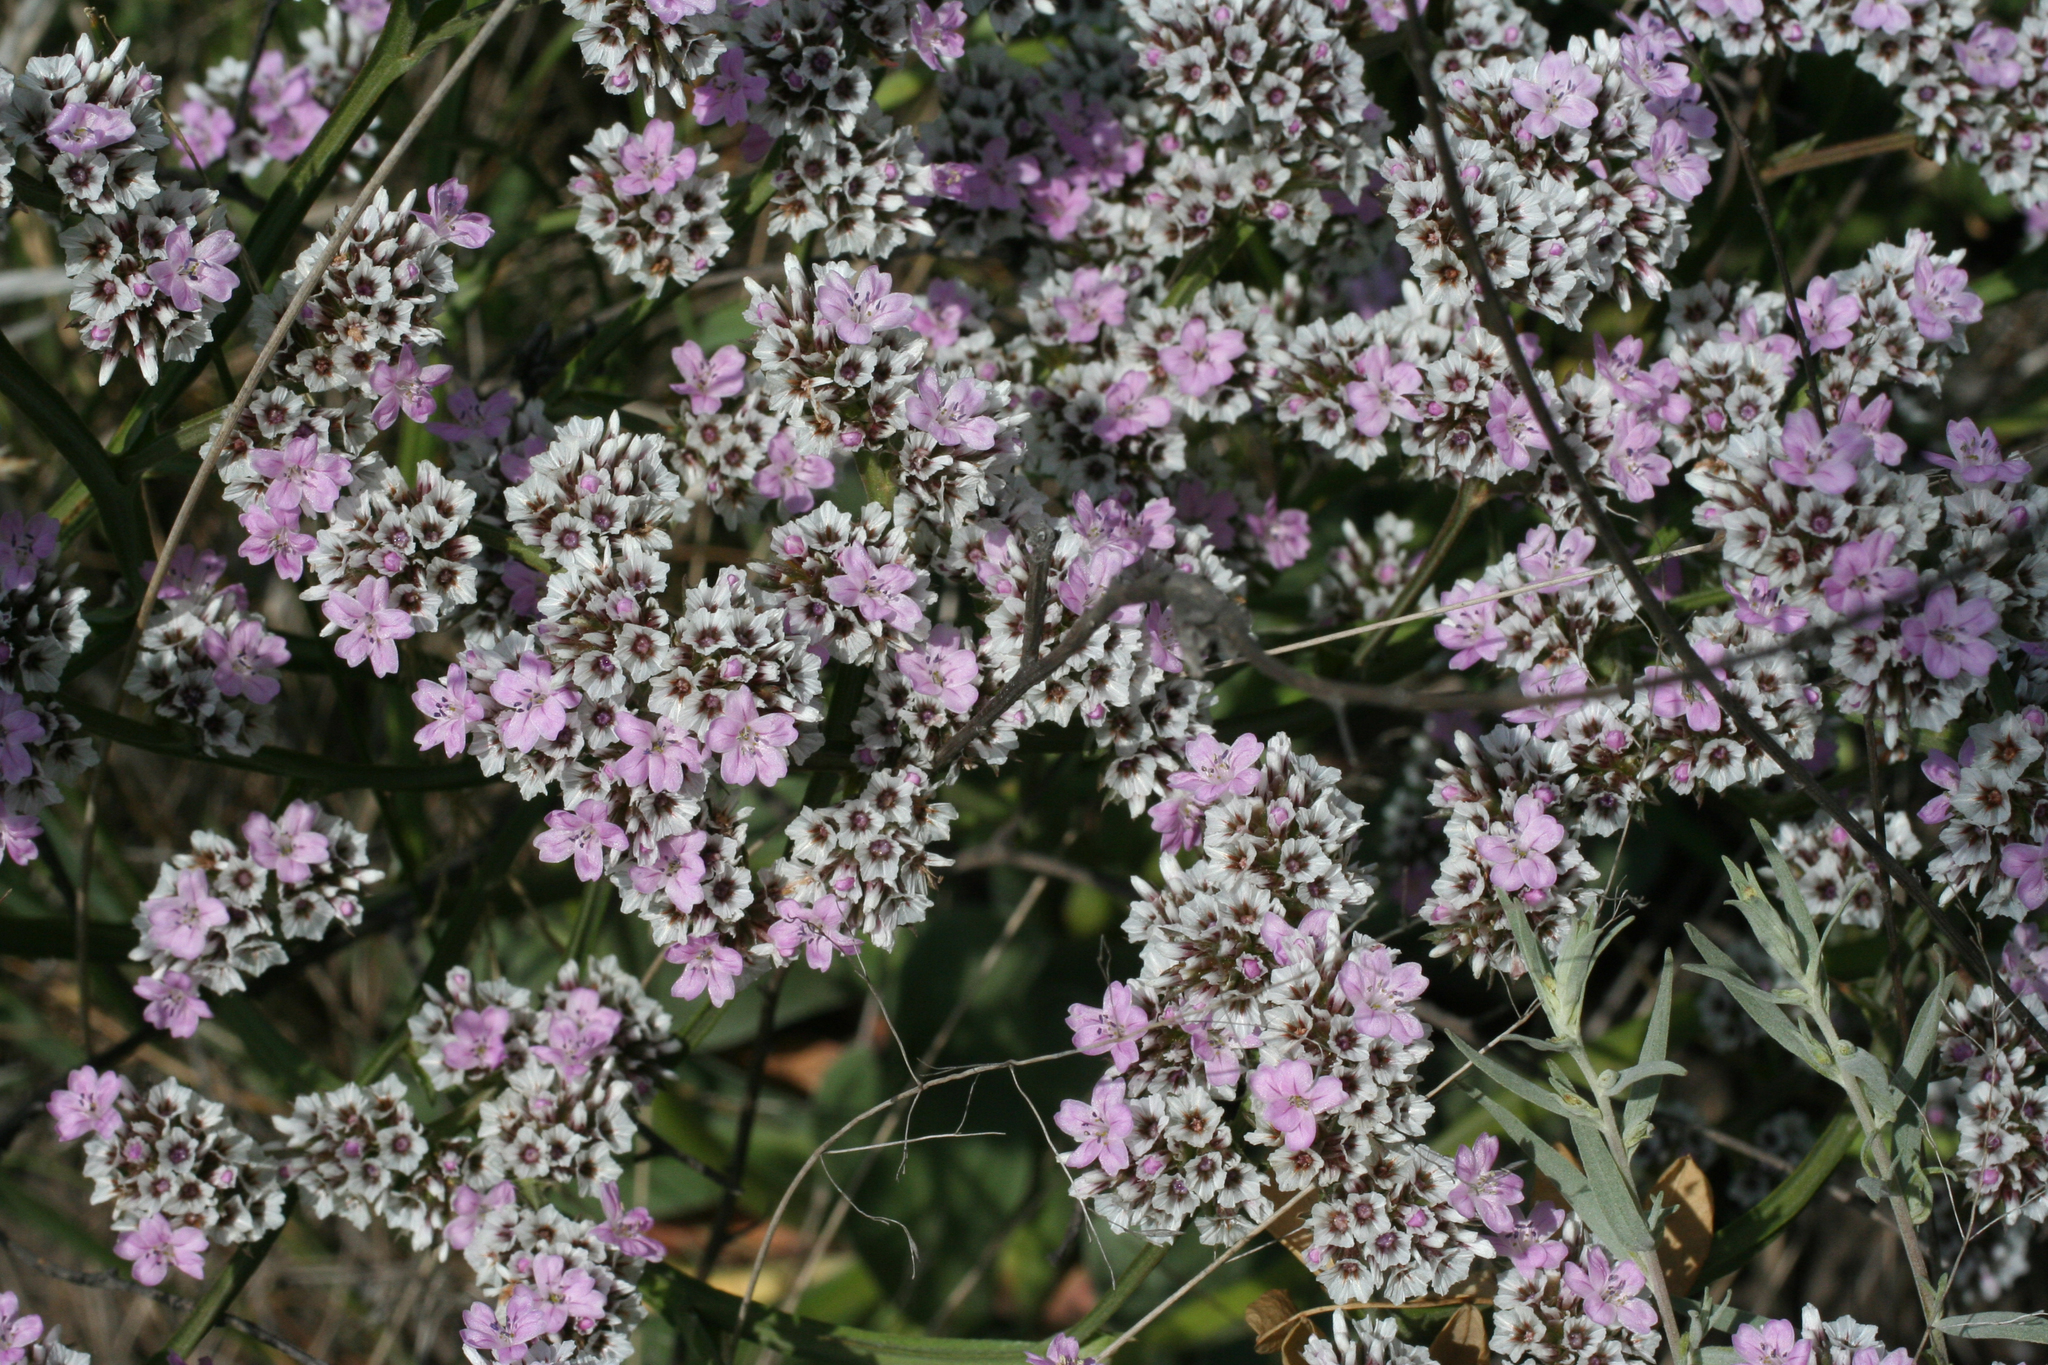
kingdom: Plantae
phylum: Tracheophyta
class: Magnoliopsida
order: Caryophyllales
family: Plumbaginaceae
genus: Goniolimon
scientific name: Goniolimon speciosum
